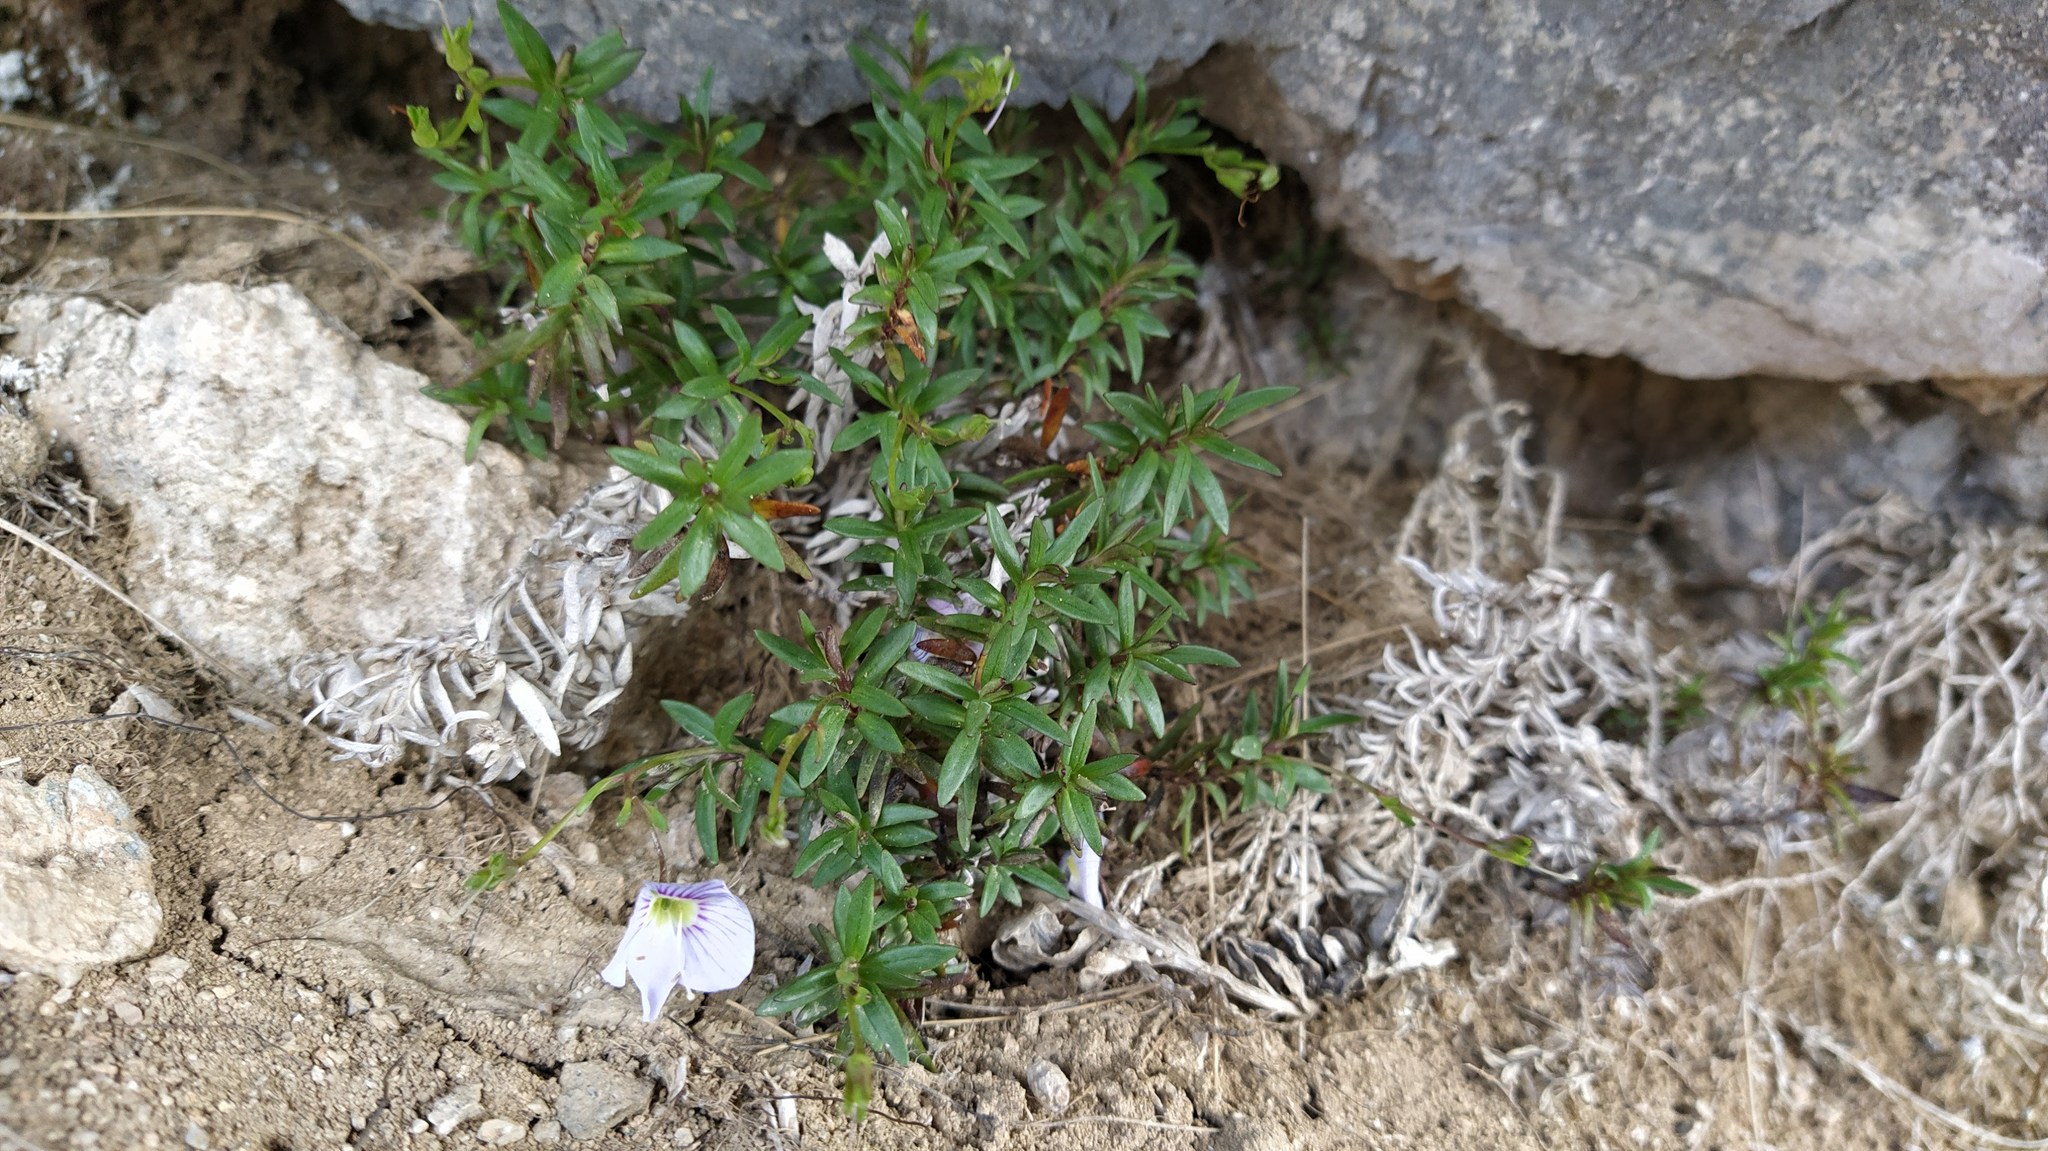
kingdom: Plantae
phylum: Tracheophyta
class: Magnoliopsida
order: Lamiales
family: Plantaginaceae
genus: Veronica
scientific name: Veronica linifolia
